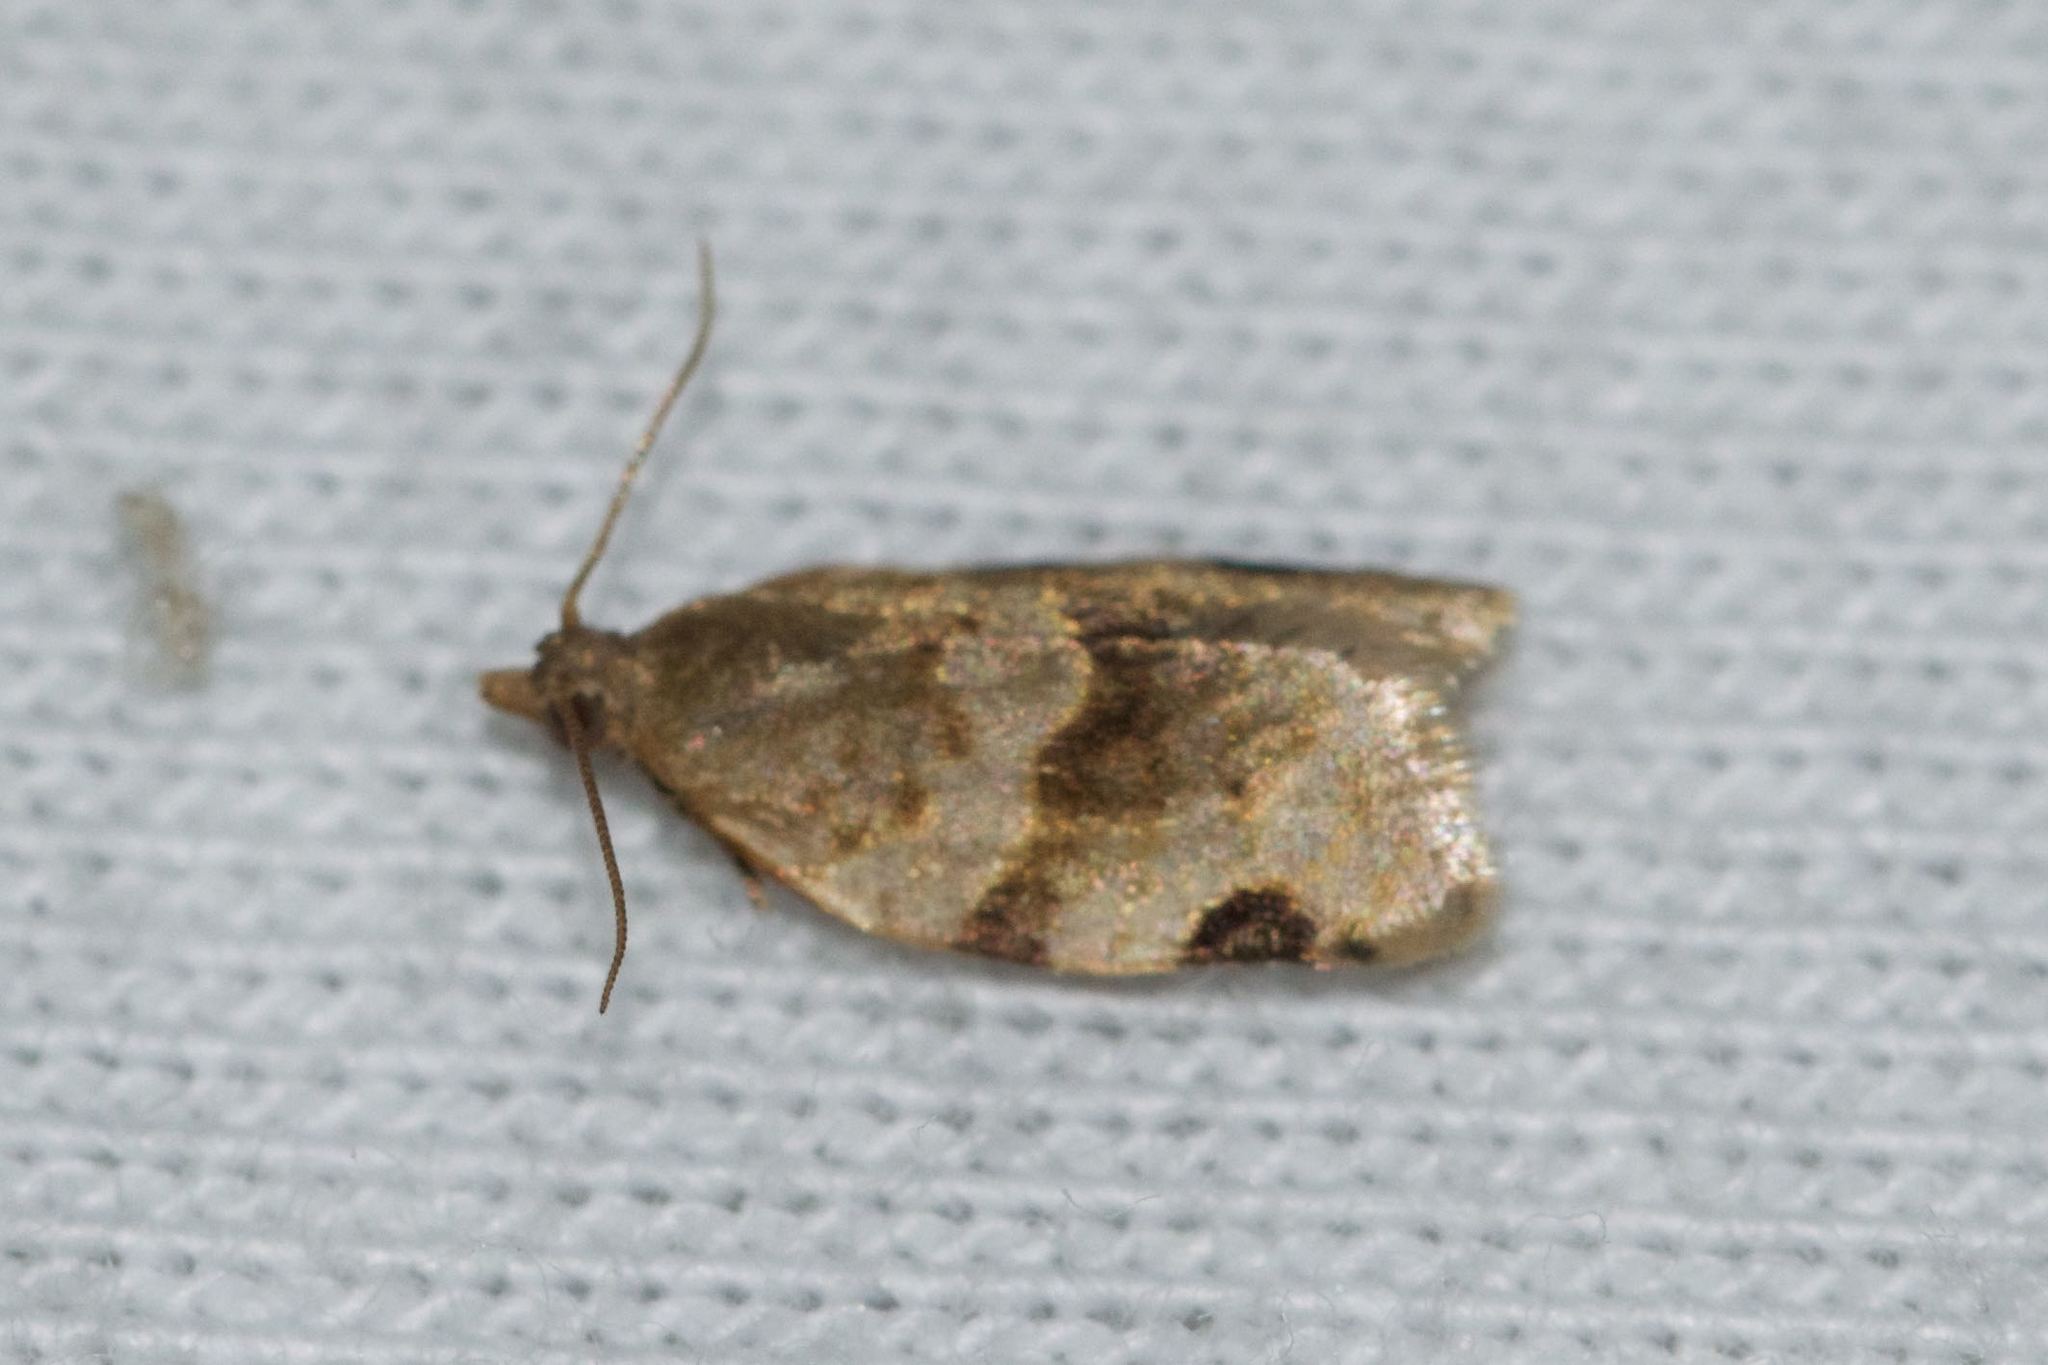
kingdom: Animalia
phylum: Arthropoda
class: Insecta
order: Lepidoptera
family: Tortricidae
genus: Clepsis
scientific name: Clepsis virescana
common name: Greenish apple moth
